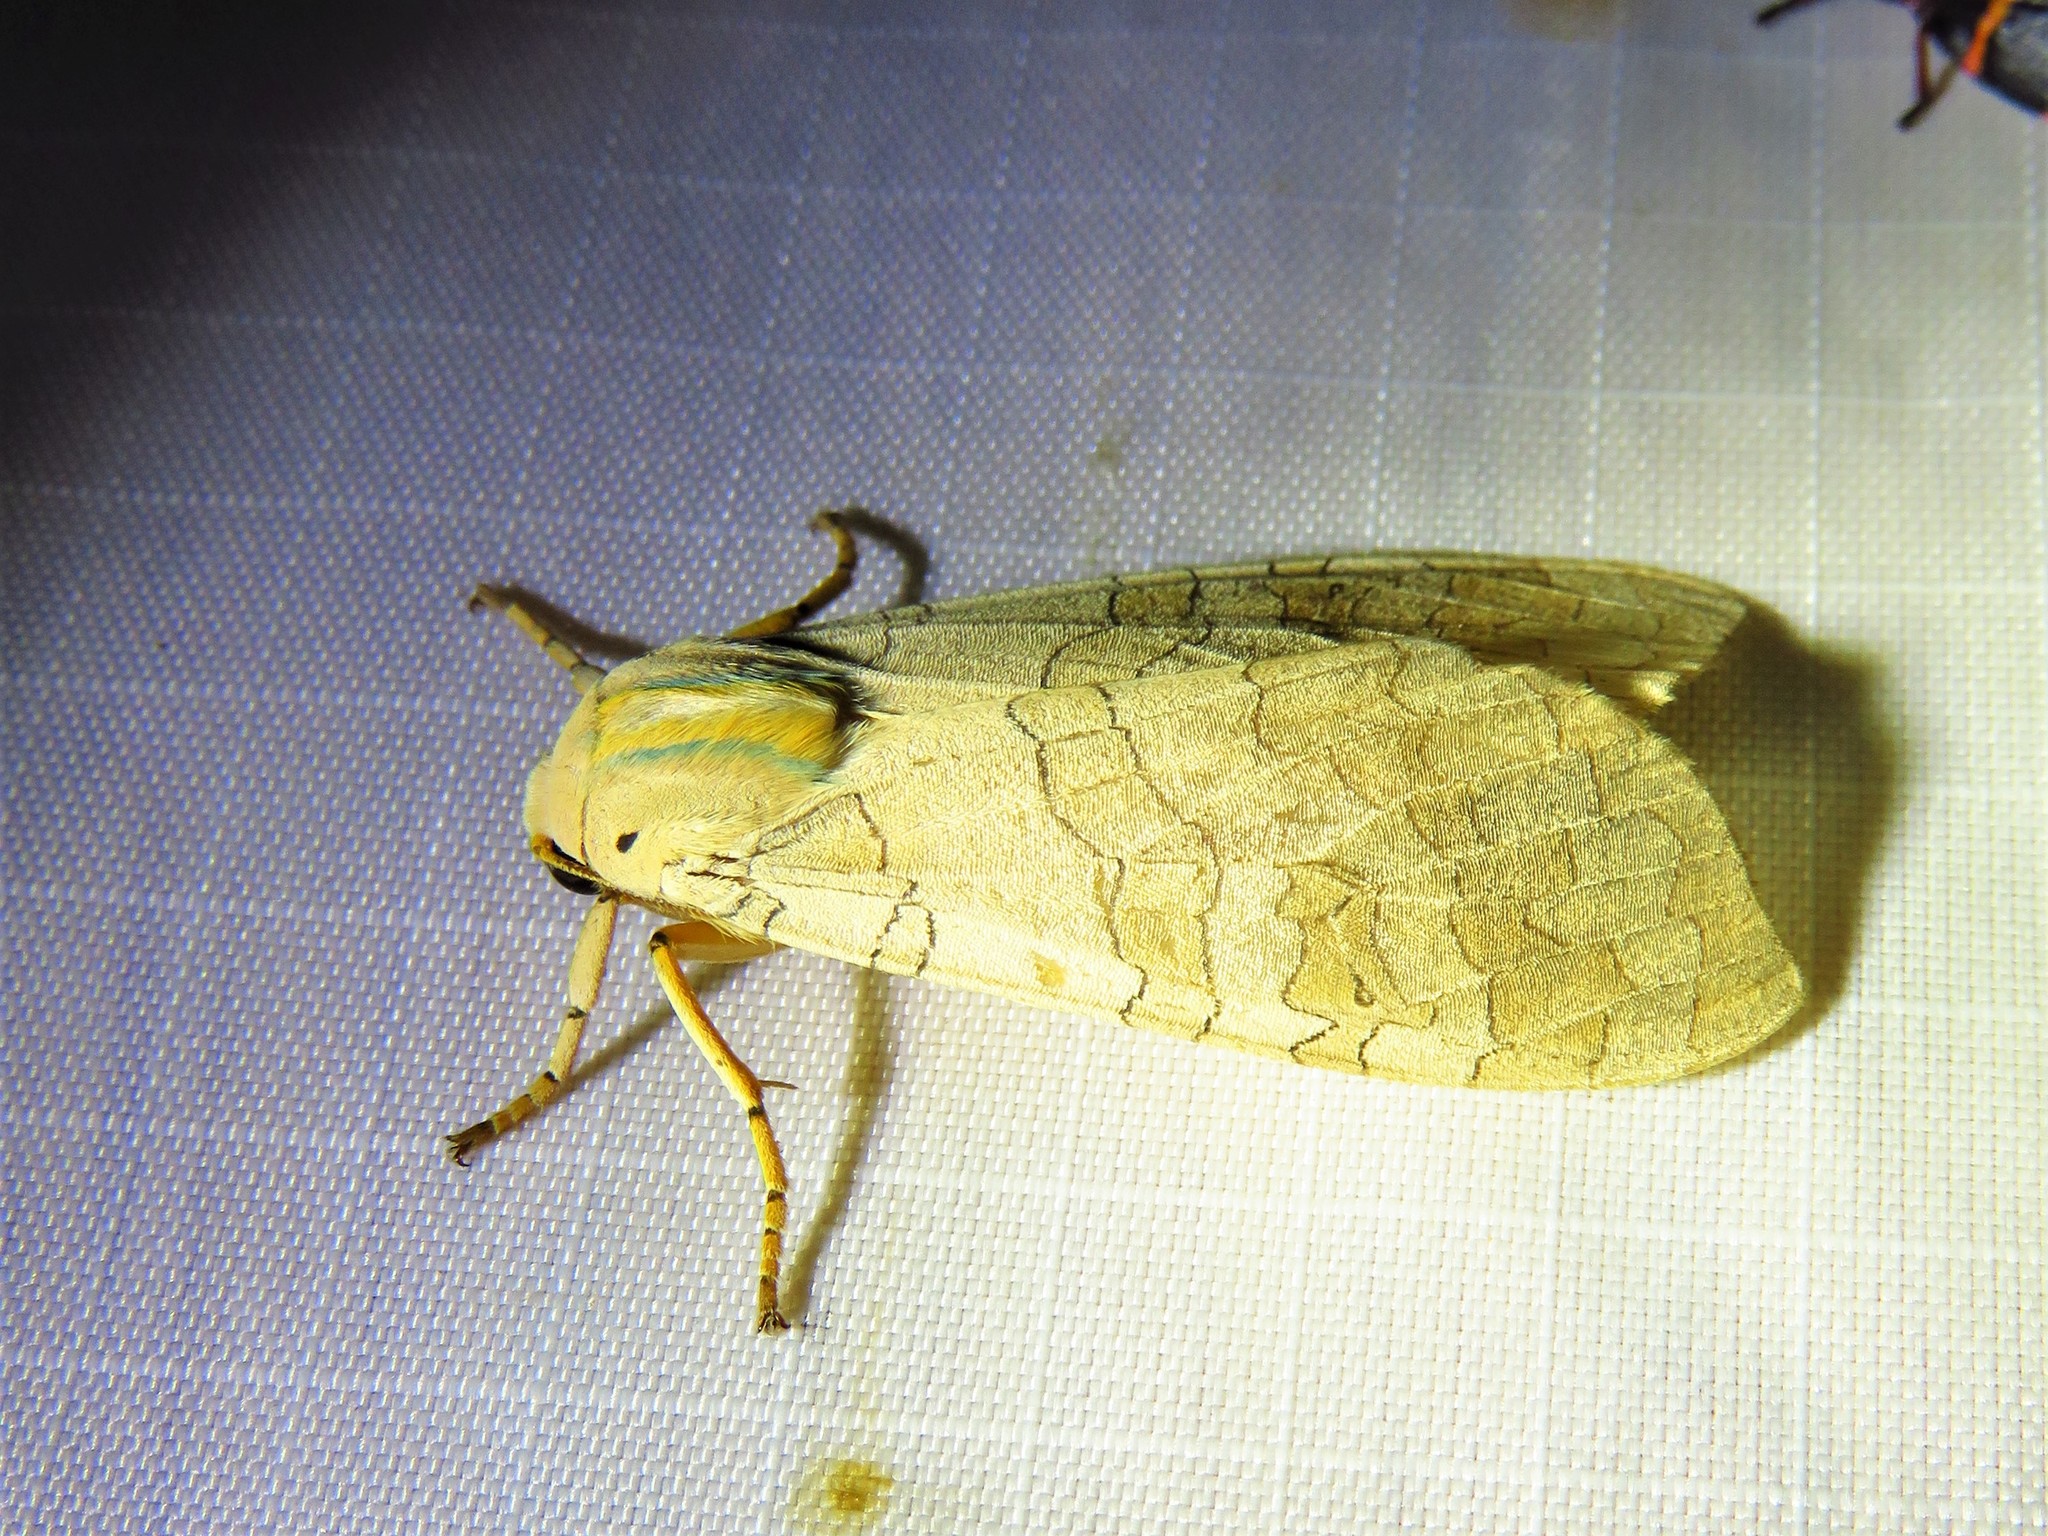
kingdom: Animalia
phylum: Arthropoda
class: Insecta
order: Lepidoptera
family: Erebidae
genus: Halysidota
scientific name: Halysidota
